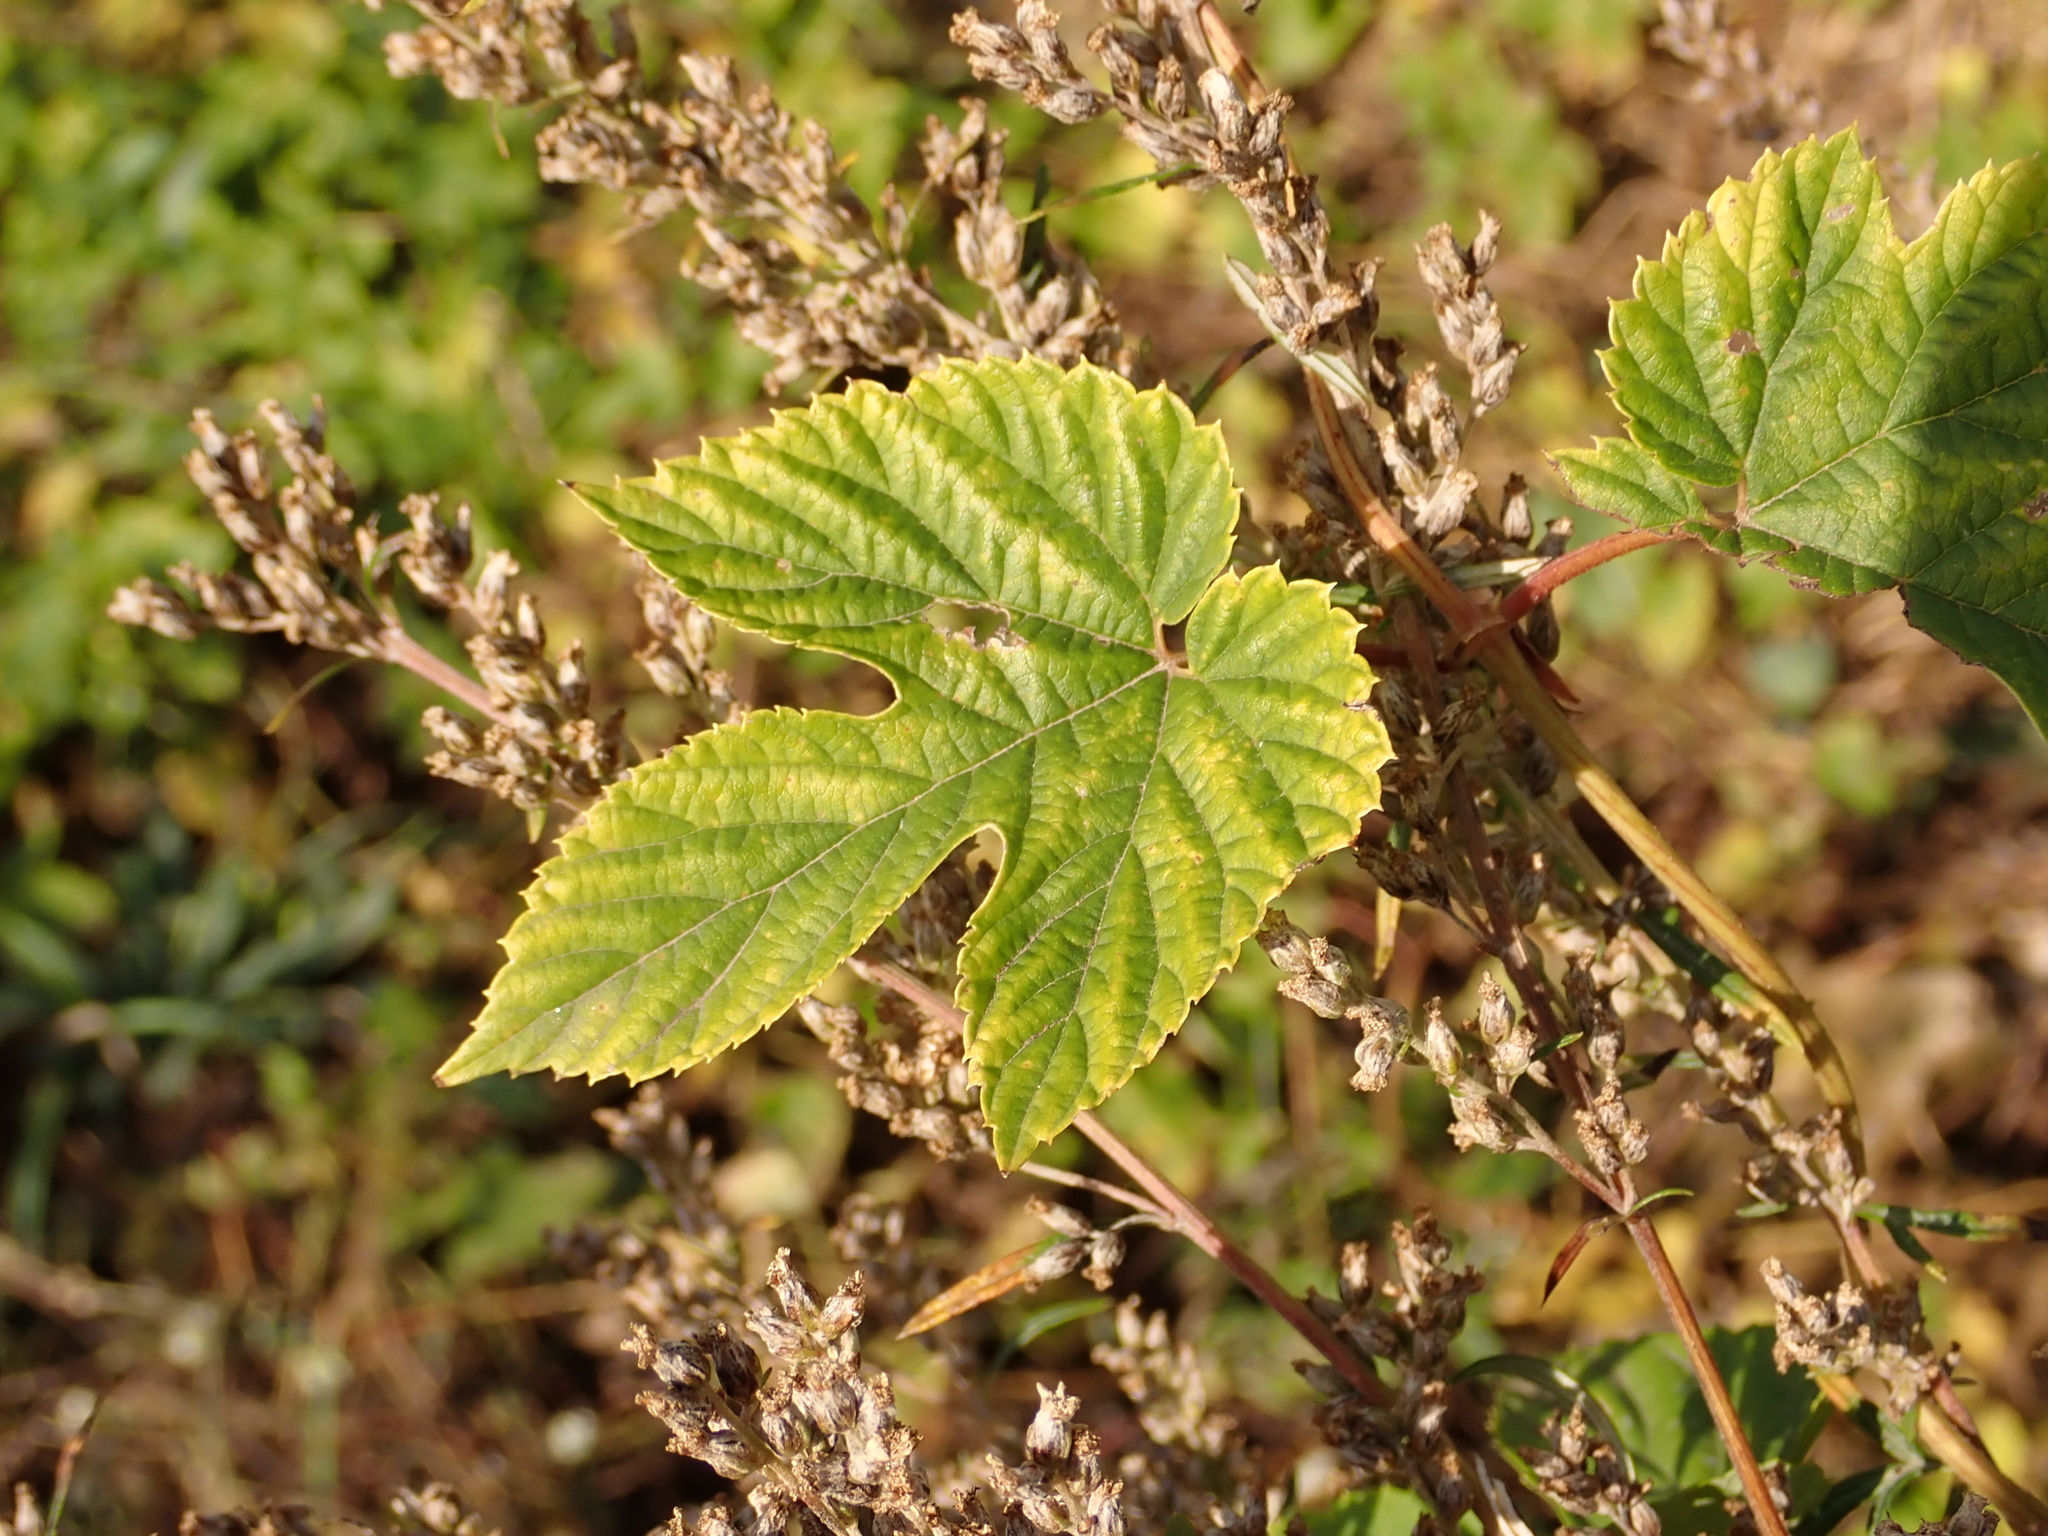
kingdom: Plantae
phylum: Tracheophyta
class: Magnoliopsida
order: Rosales
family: Cannabaceae
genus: Humulus
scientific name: Humulus lupulus
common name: Hop
